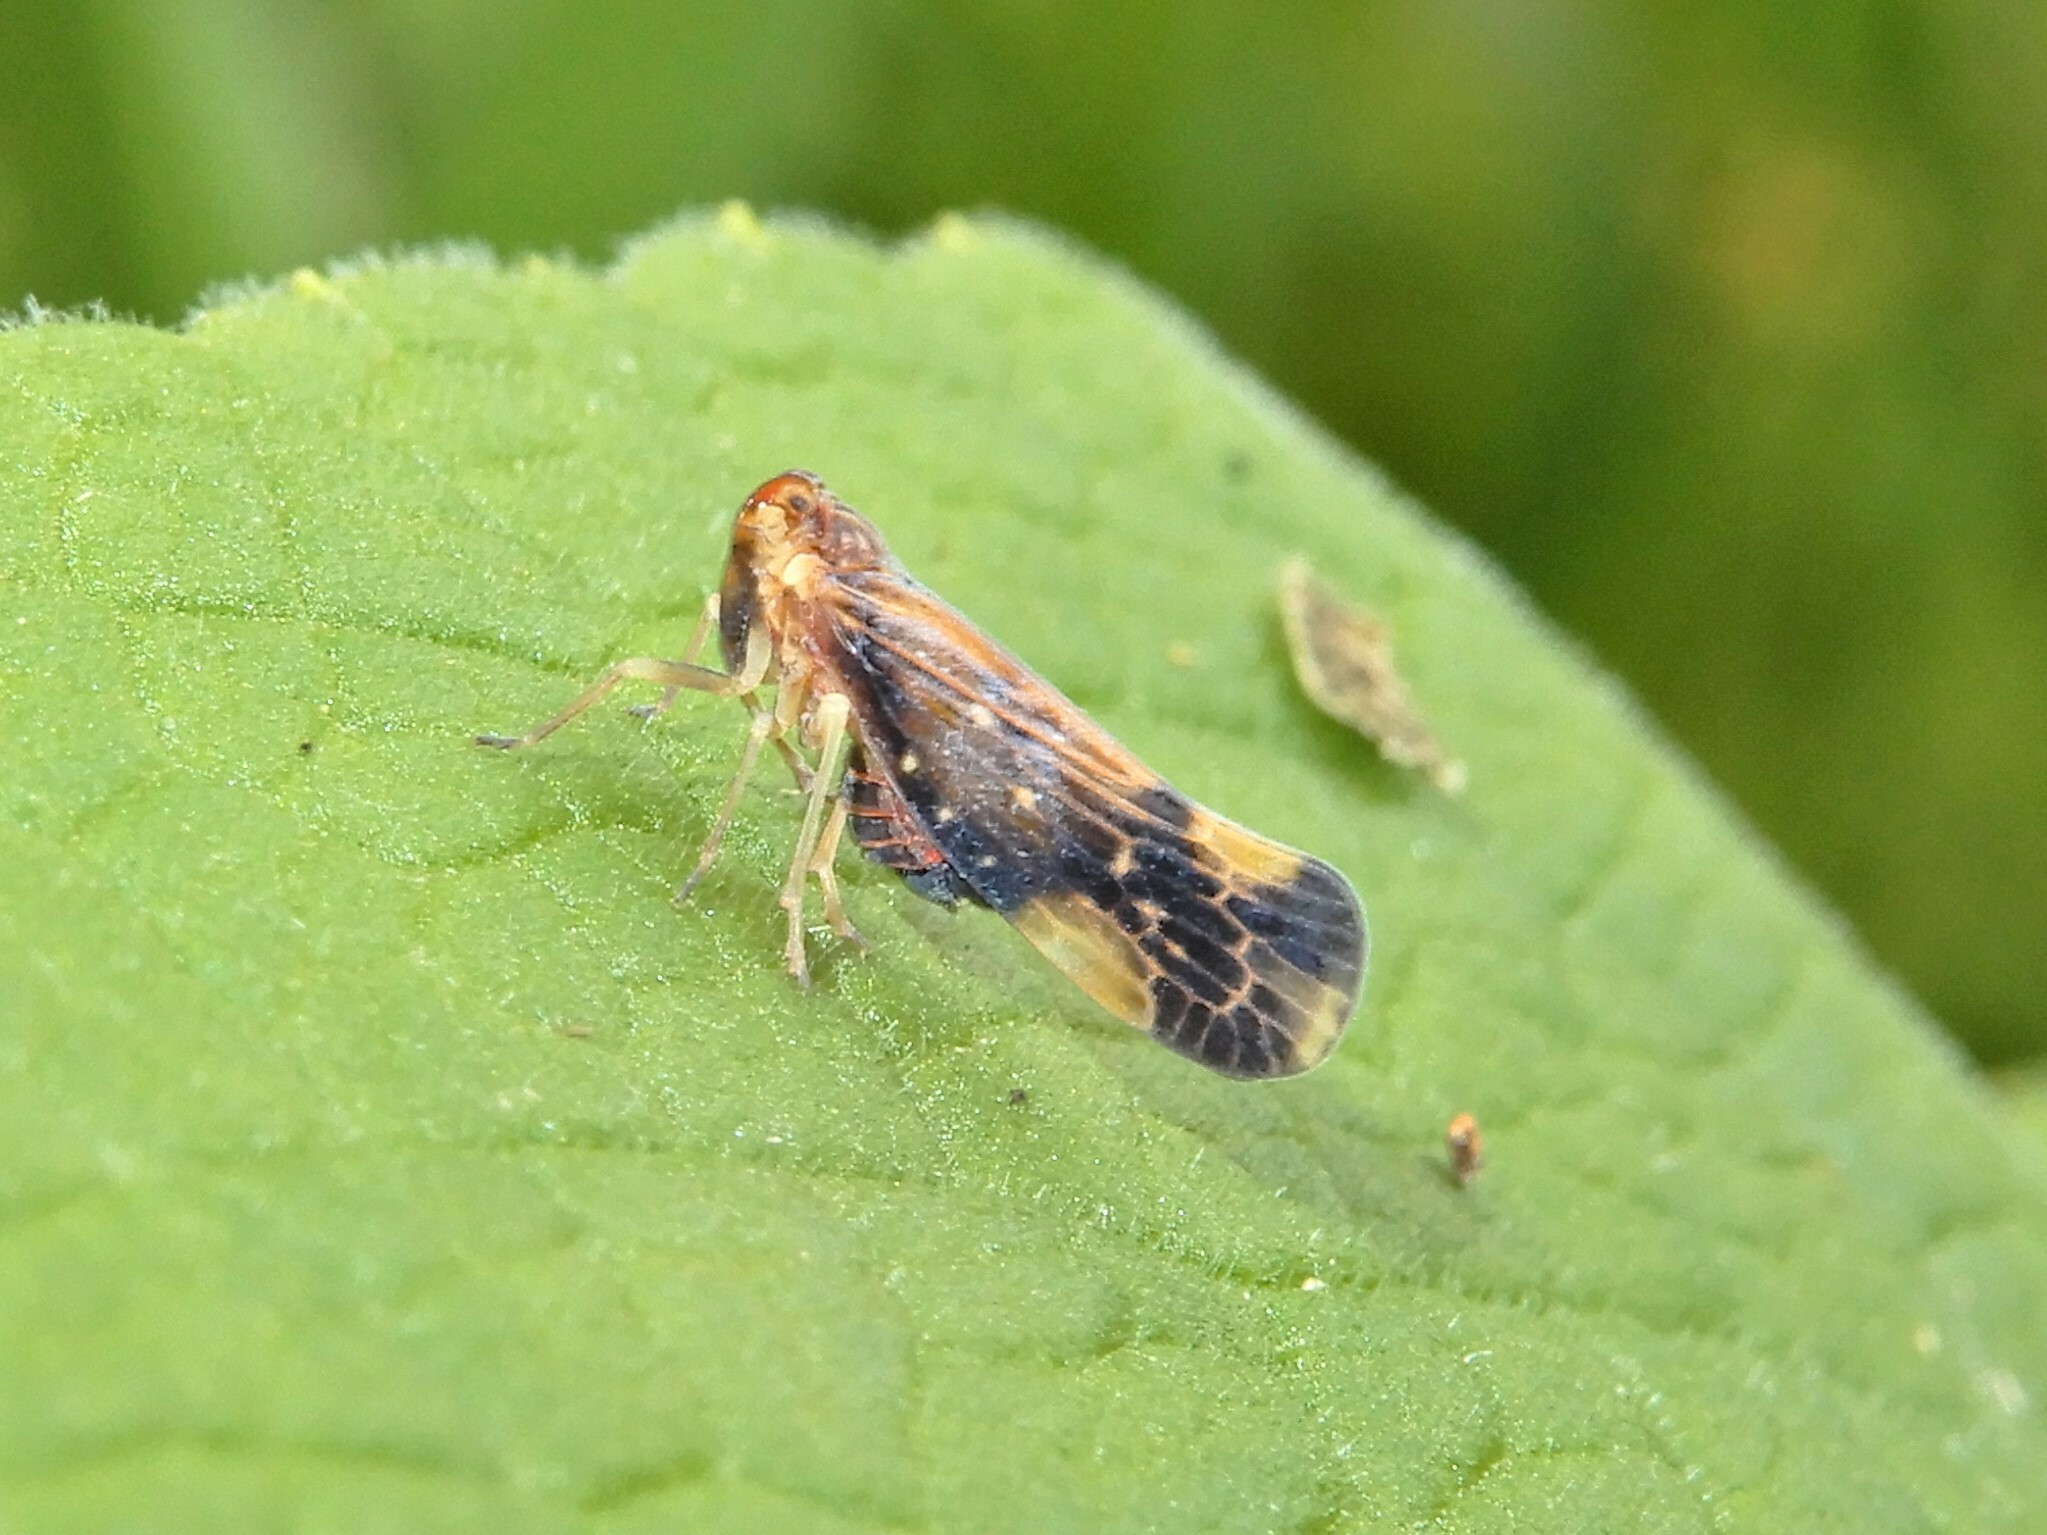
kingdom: Animalia
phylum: Arthropoda
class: Insecta
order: Hemiptera
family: Derbidae
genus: Eocenchrea
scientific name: Eocenchrea maorica
